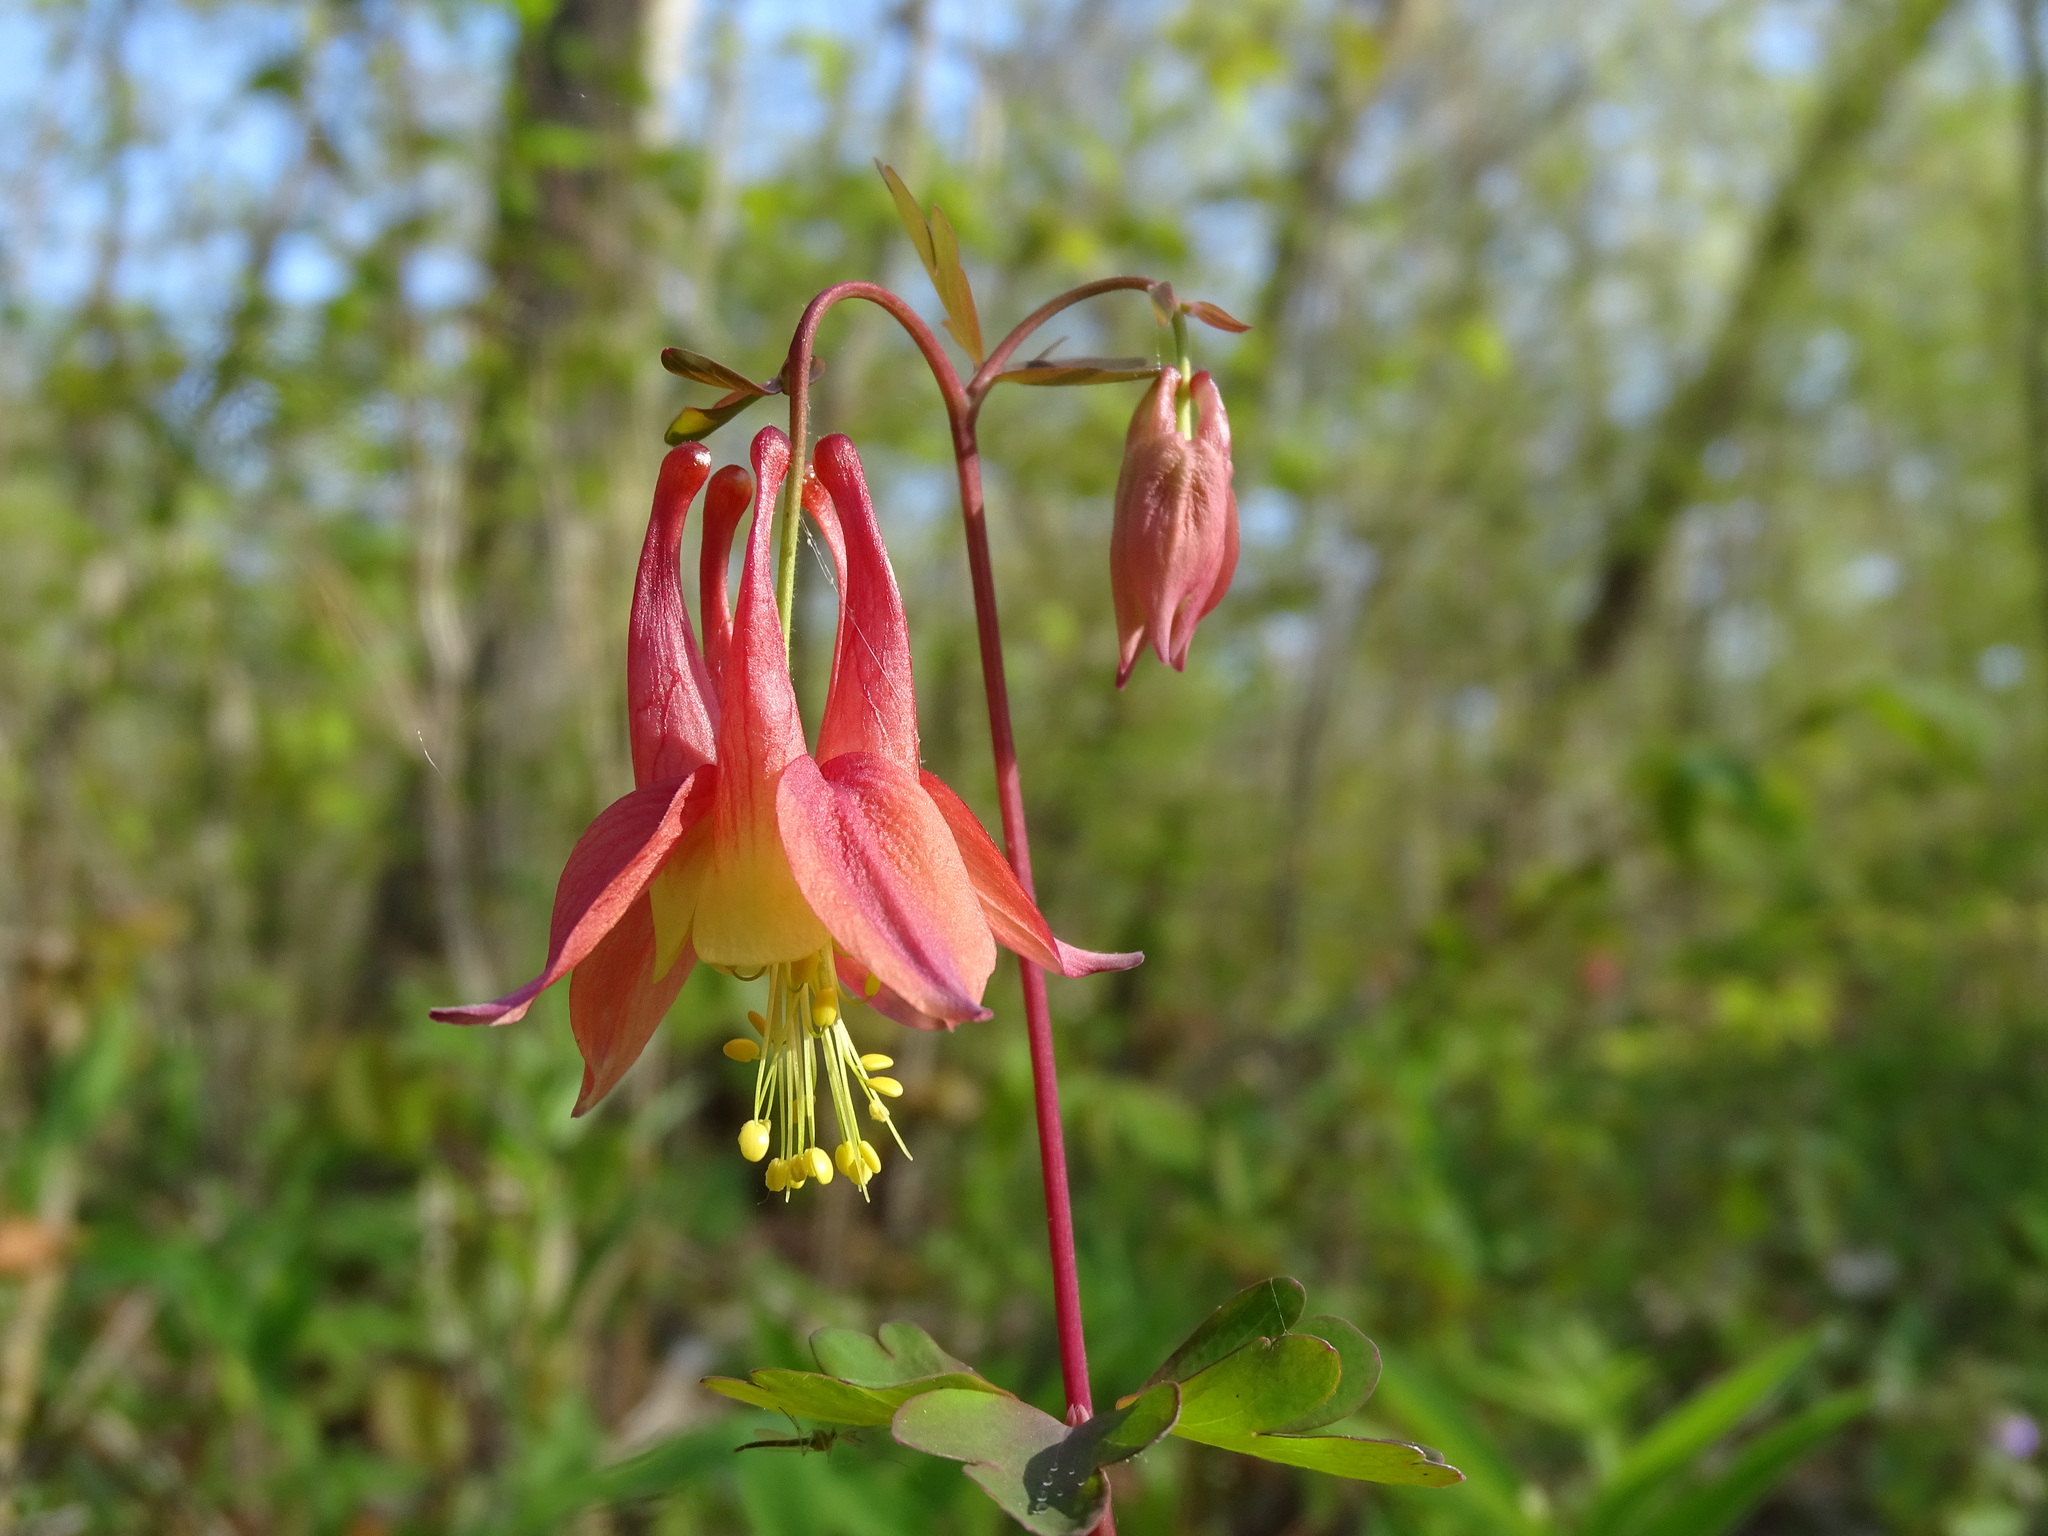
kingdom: Plantae
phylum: Tracheophyta
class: Magnoliopsida
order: Ranunculales
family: Ranunculaceae
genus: Aquilegia
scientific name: Aquilegia canadensis
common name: American columbine
